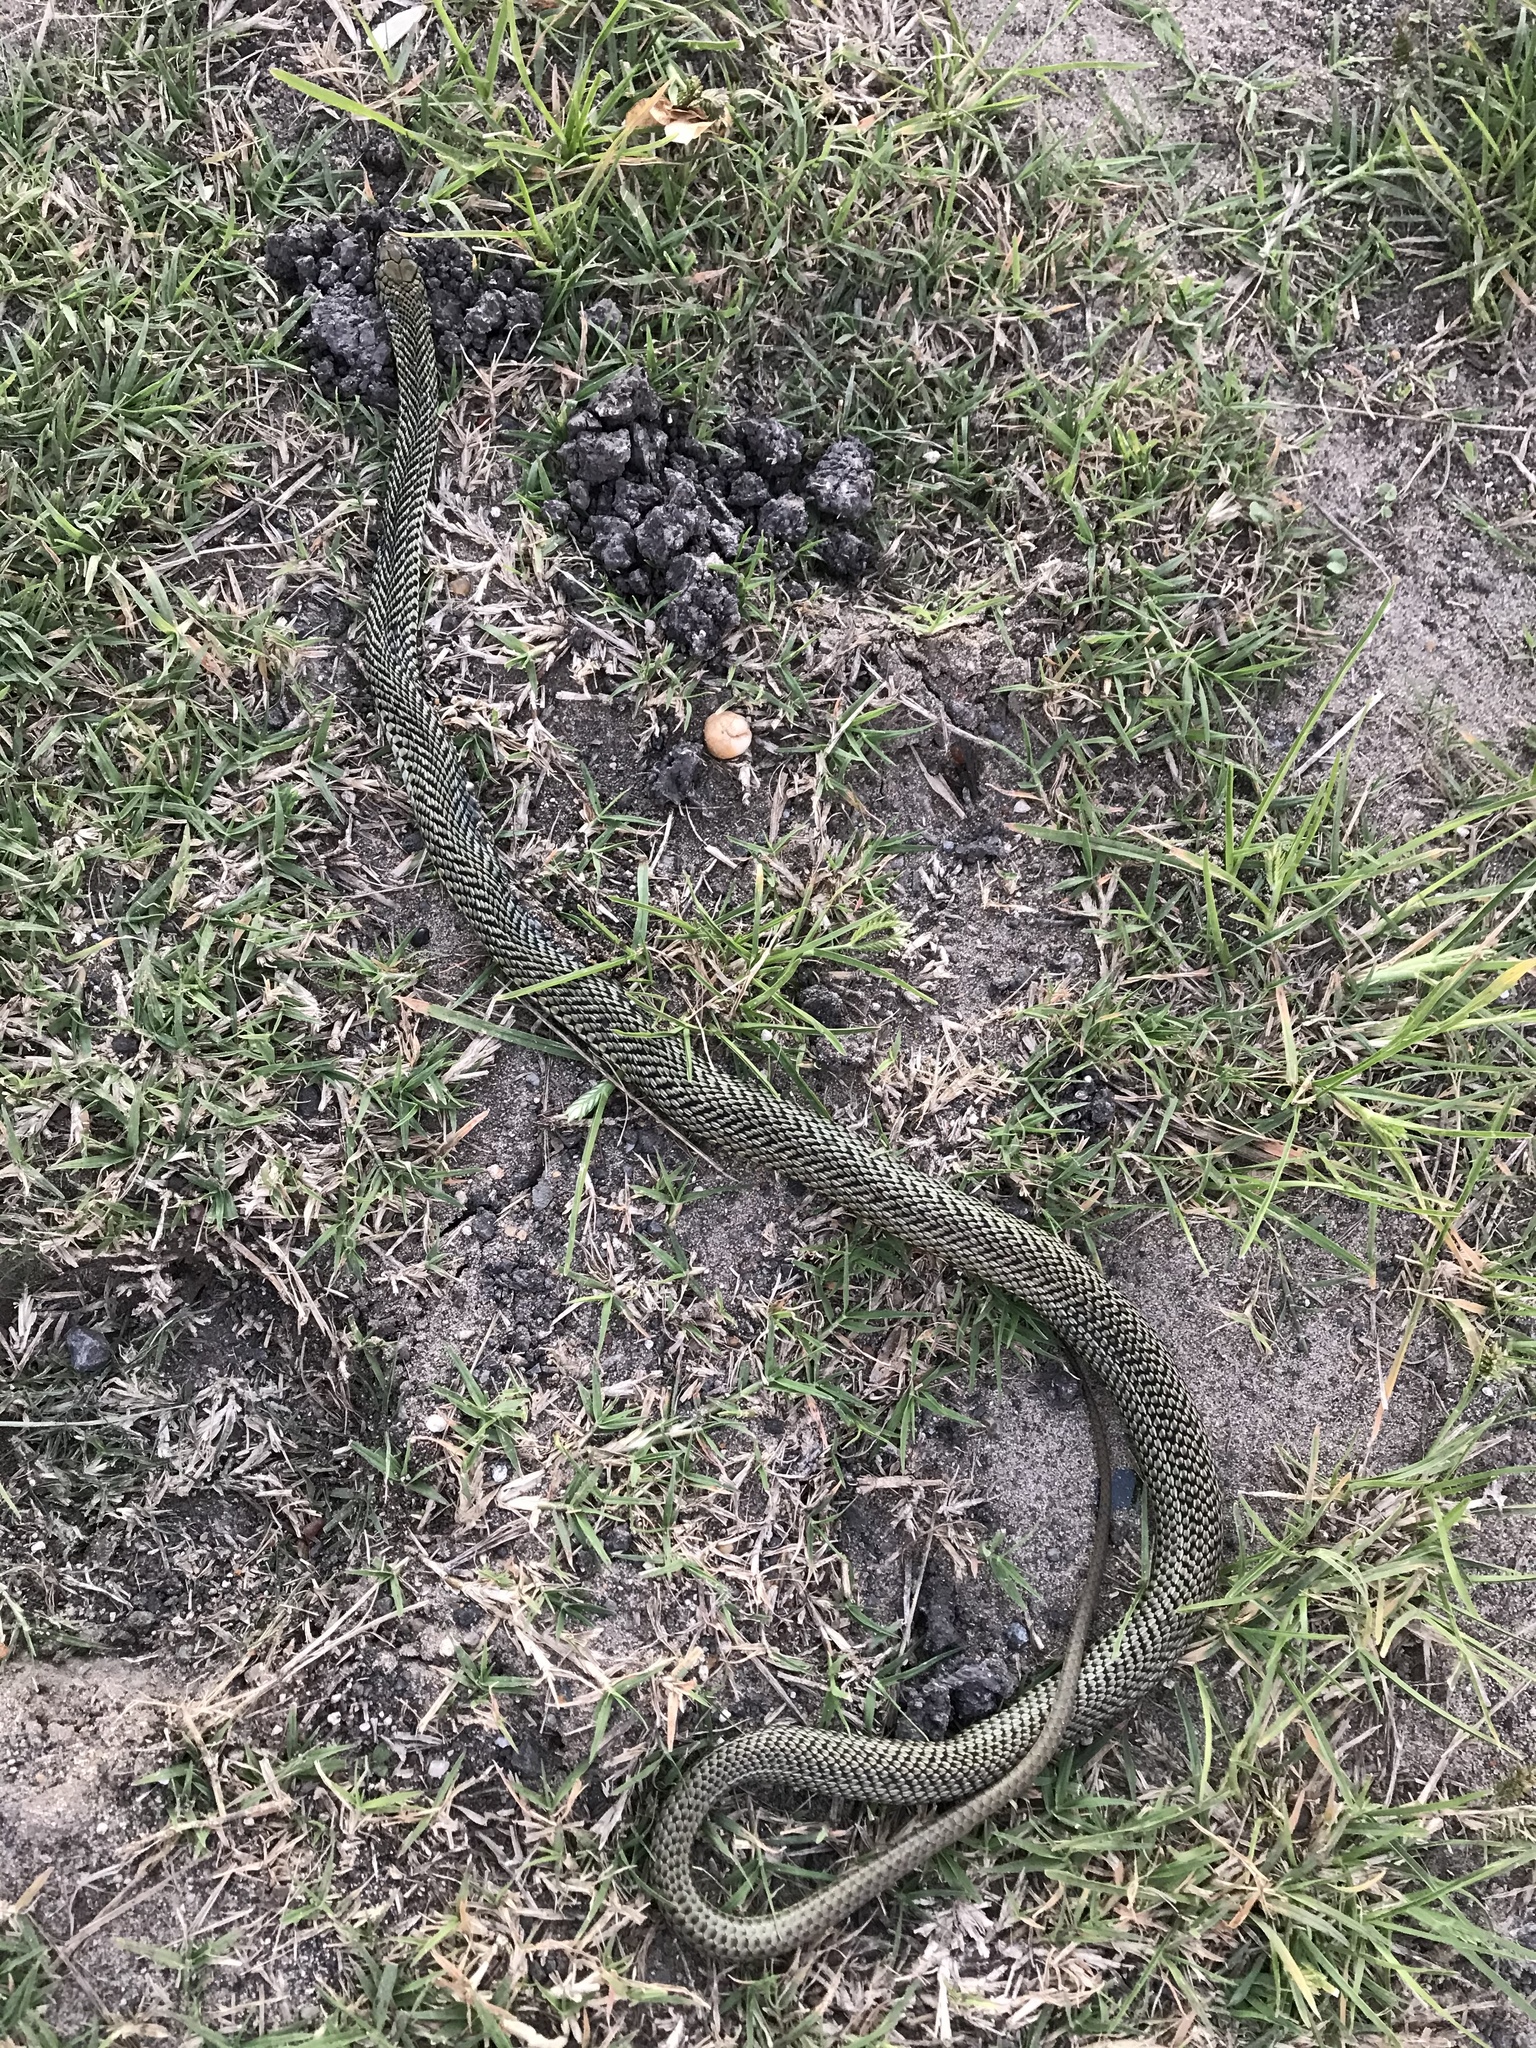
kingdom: Animalia
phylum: Chordata
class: Squamata
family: Colubridae
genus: Philodryas
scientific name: Philodryas patagoniensis
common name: Patagonia green racer
